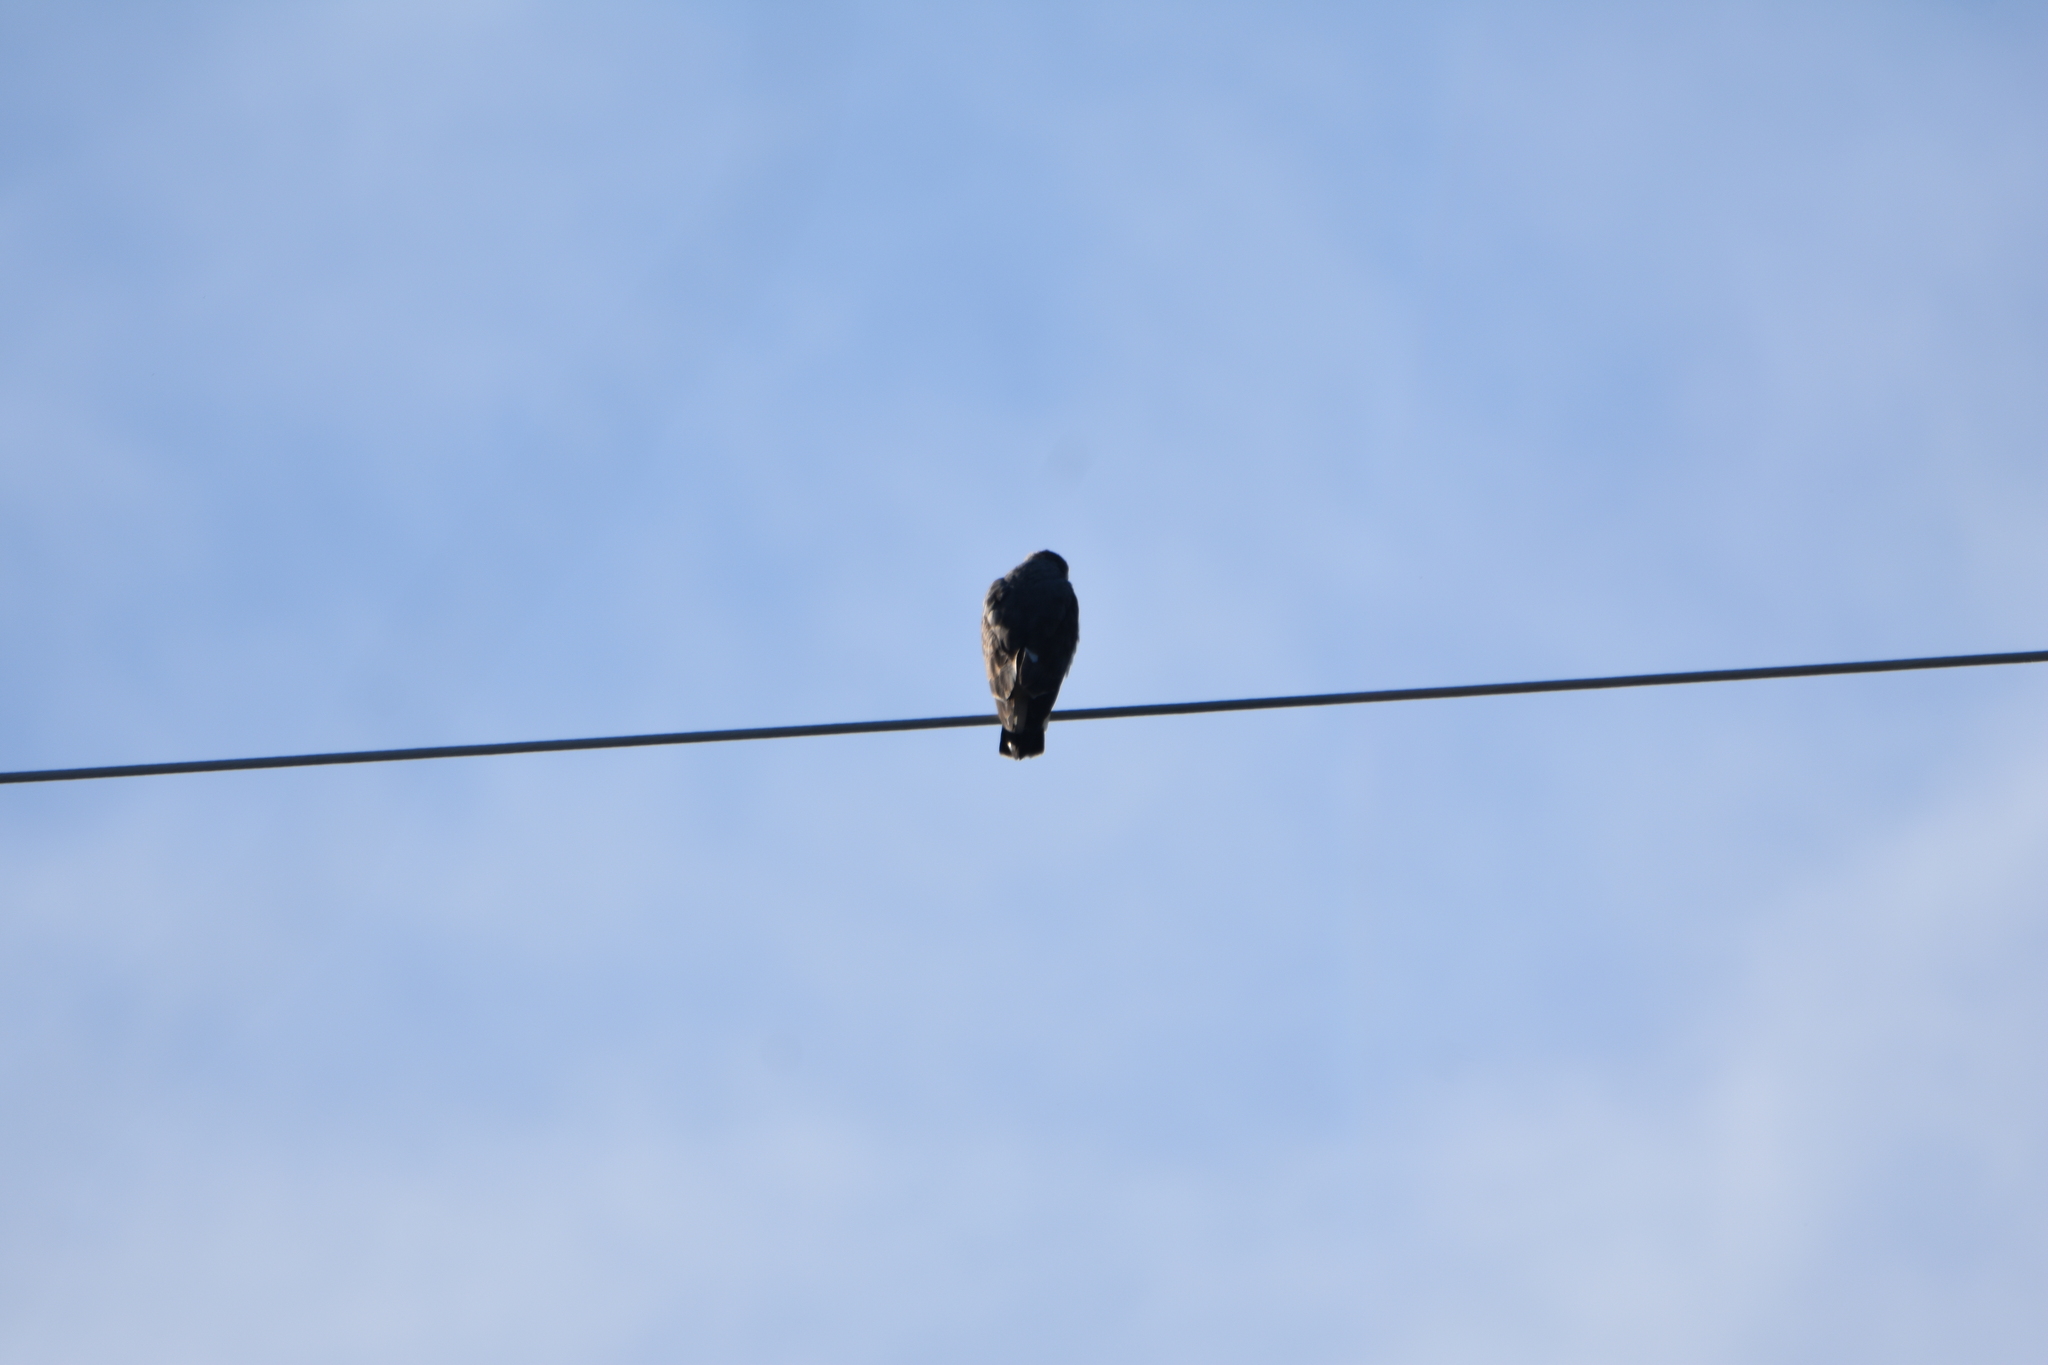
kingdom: Animalia
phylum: Chordata
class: Aves
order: Accipitriformes
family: Accipitridae
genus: Buteo
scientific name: Buteo polyosoma
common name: Variable hawk
